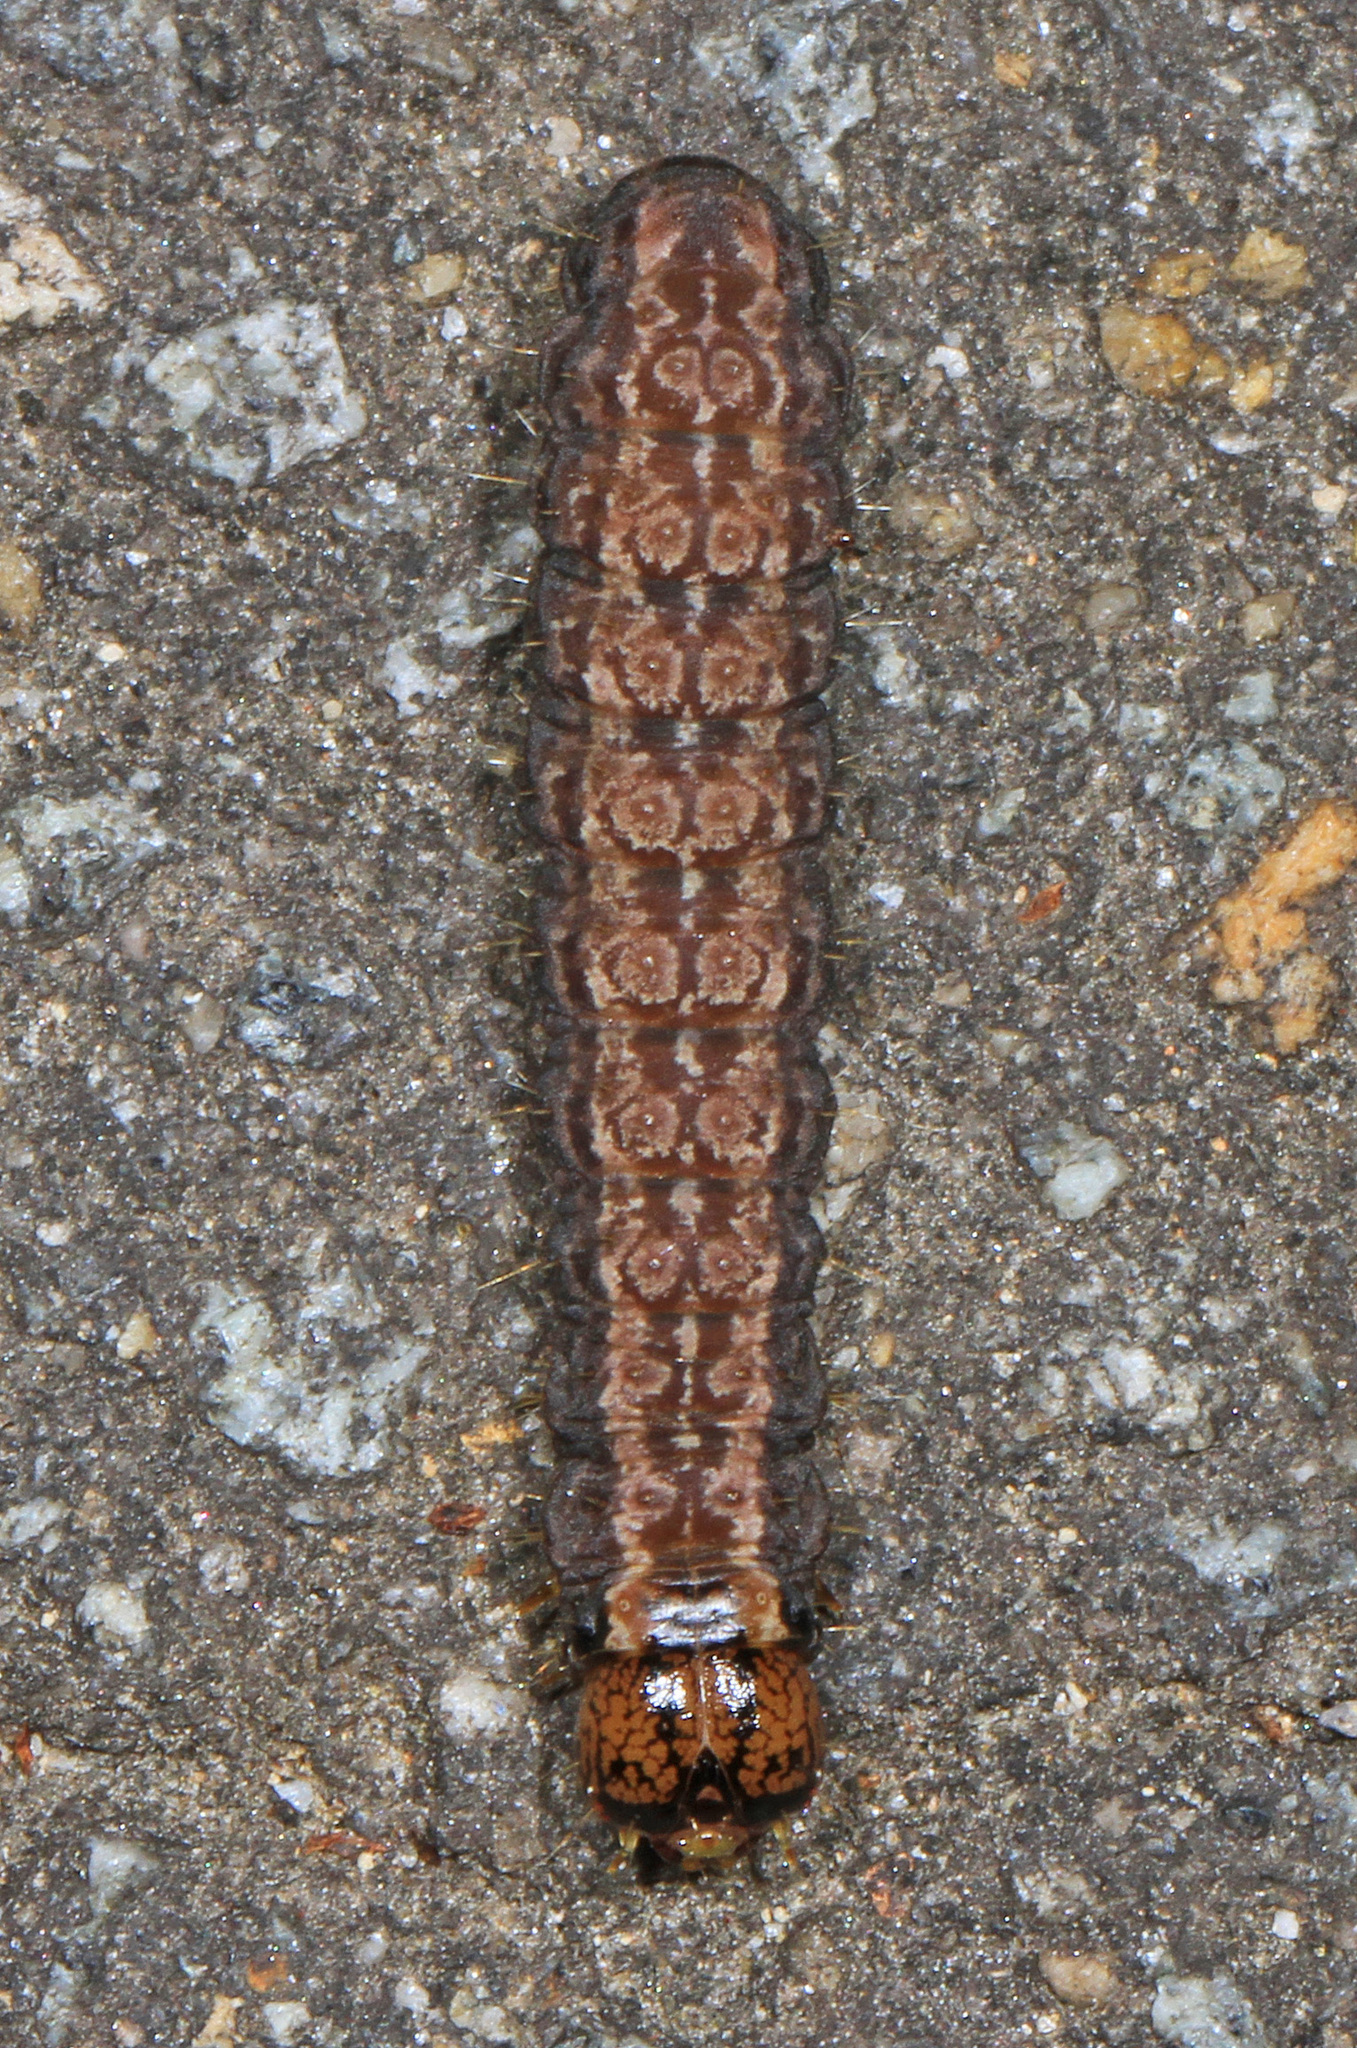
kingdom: Animalia
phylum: Arthropoda
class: Insecta
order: Lepidoptera
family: Noctuidae
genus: Acronicta
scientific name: Acronicta
